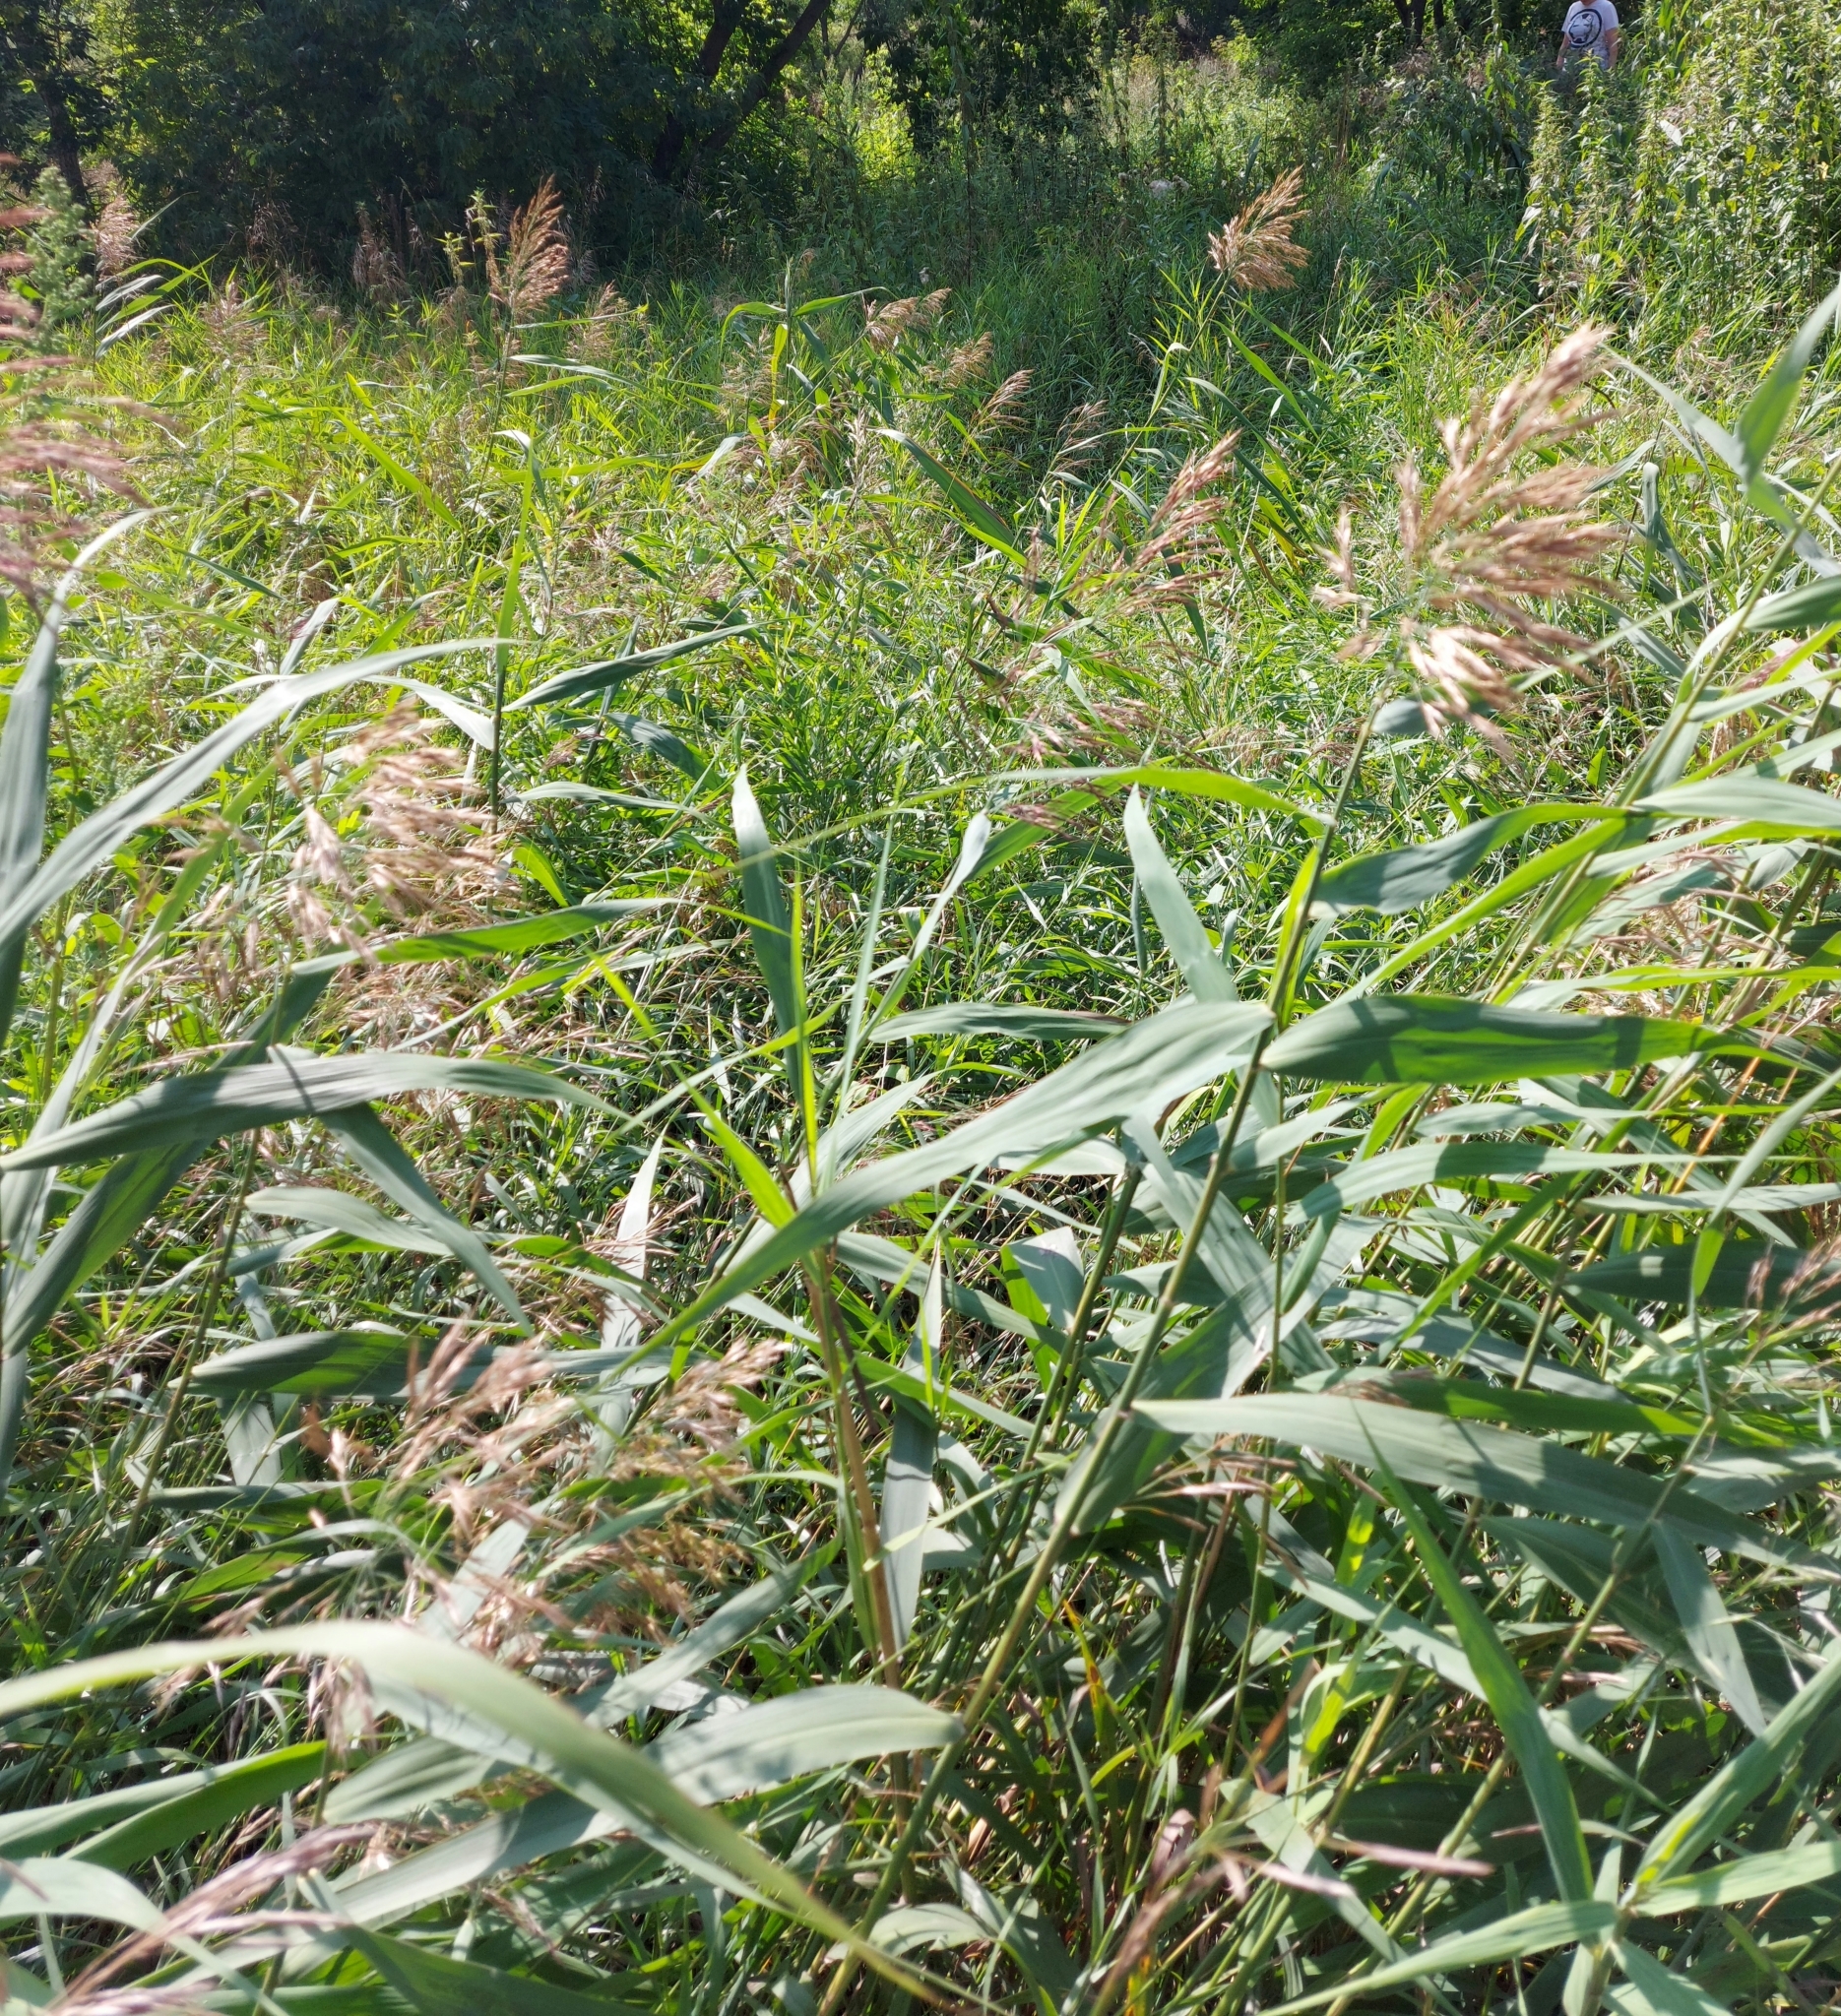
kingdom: Plantae
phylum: Tracheophyta
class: Liliopsida
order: Poales
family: Poaceae
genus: Phragmites
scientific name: Phragmites australis
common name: Common reed
